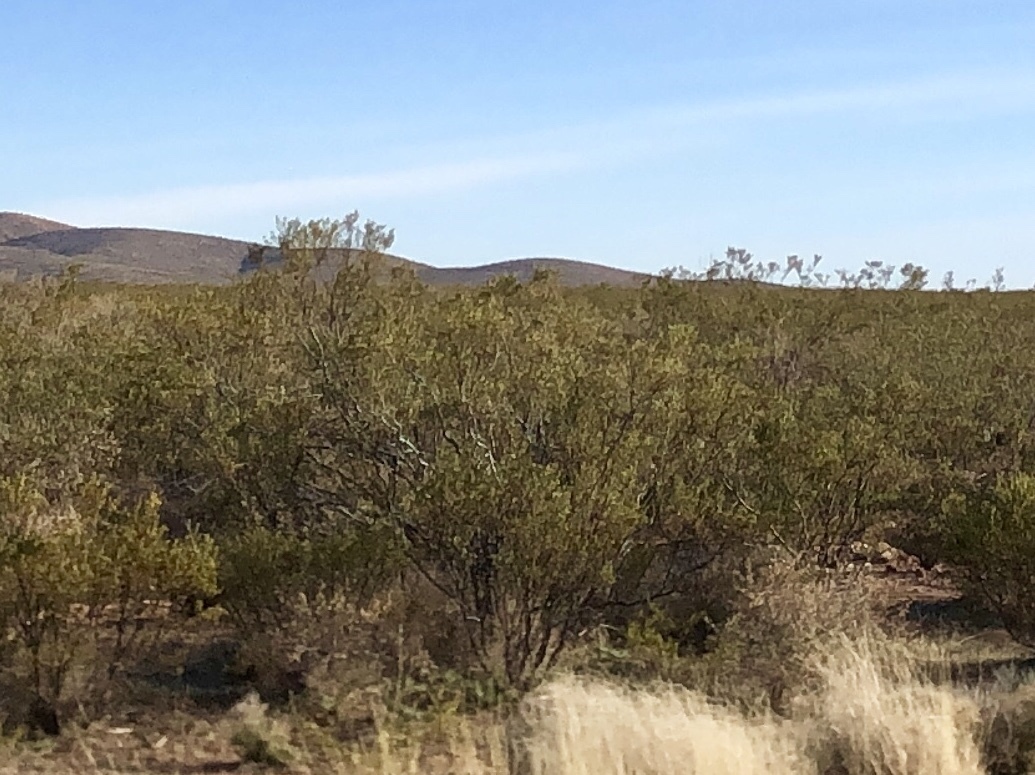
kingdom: Plantae
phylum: Tracheophyta
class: Magnoliopsida
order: Zygophyllales
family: Zygophyllaceae
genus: Larrea
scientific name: Larrea tridentata
